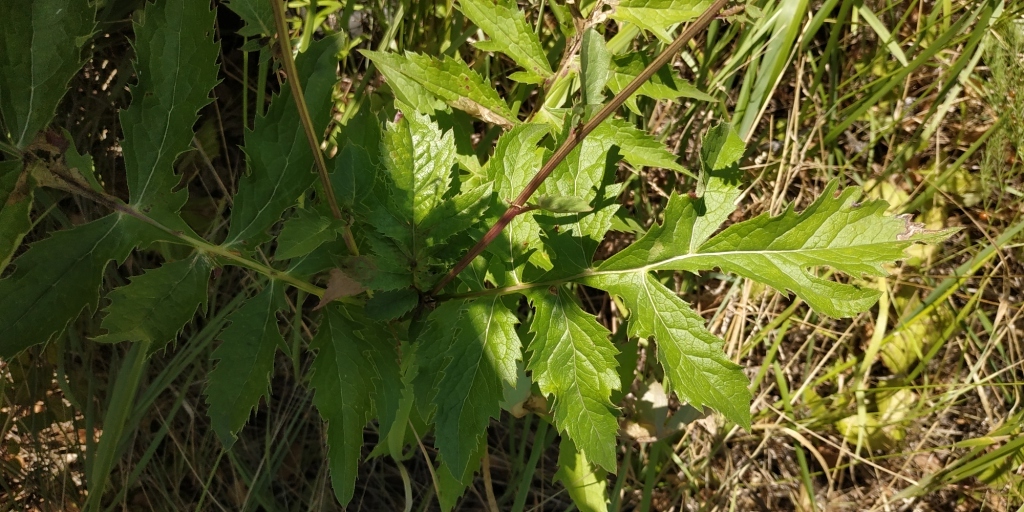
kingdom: Plantae
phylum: Tracheophyta
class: Magnoliopsida
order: Asterales
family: Asteraceae
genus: Serratula
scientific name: Serratula coronata
